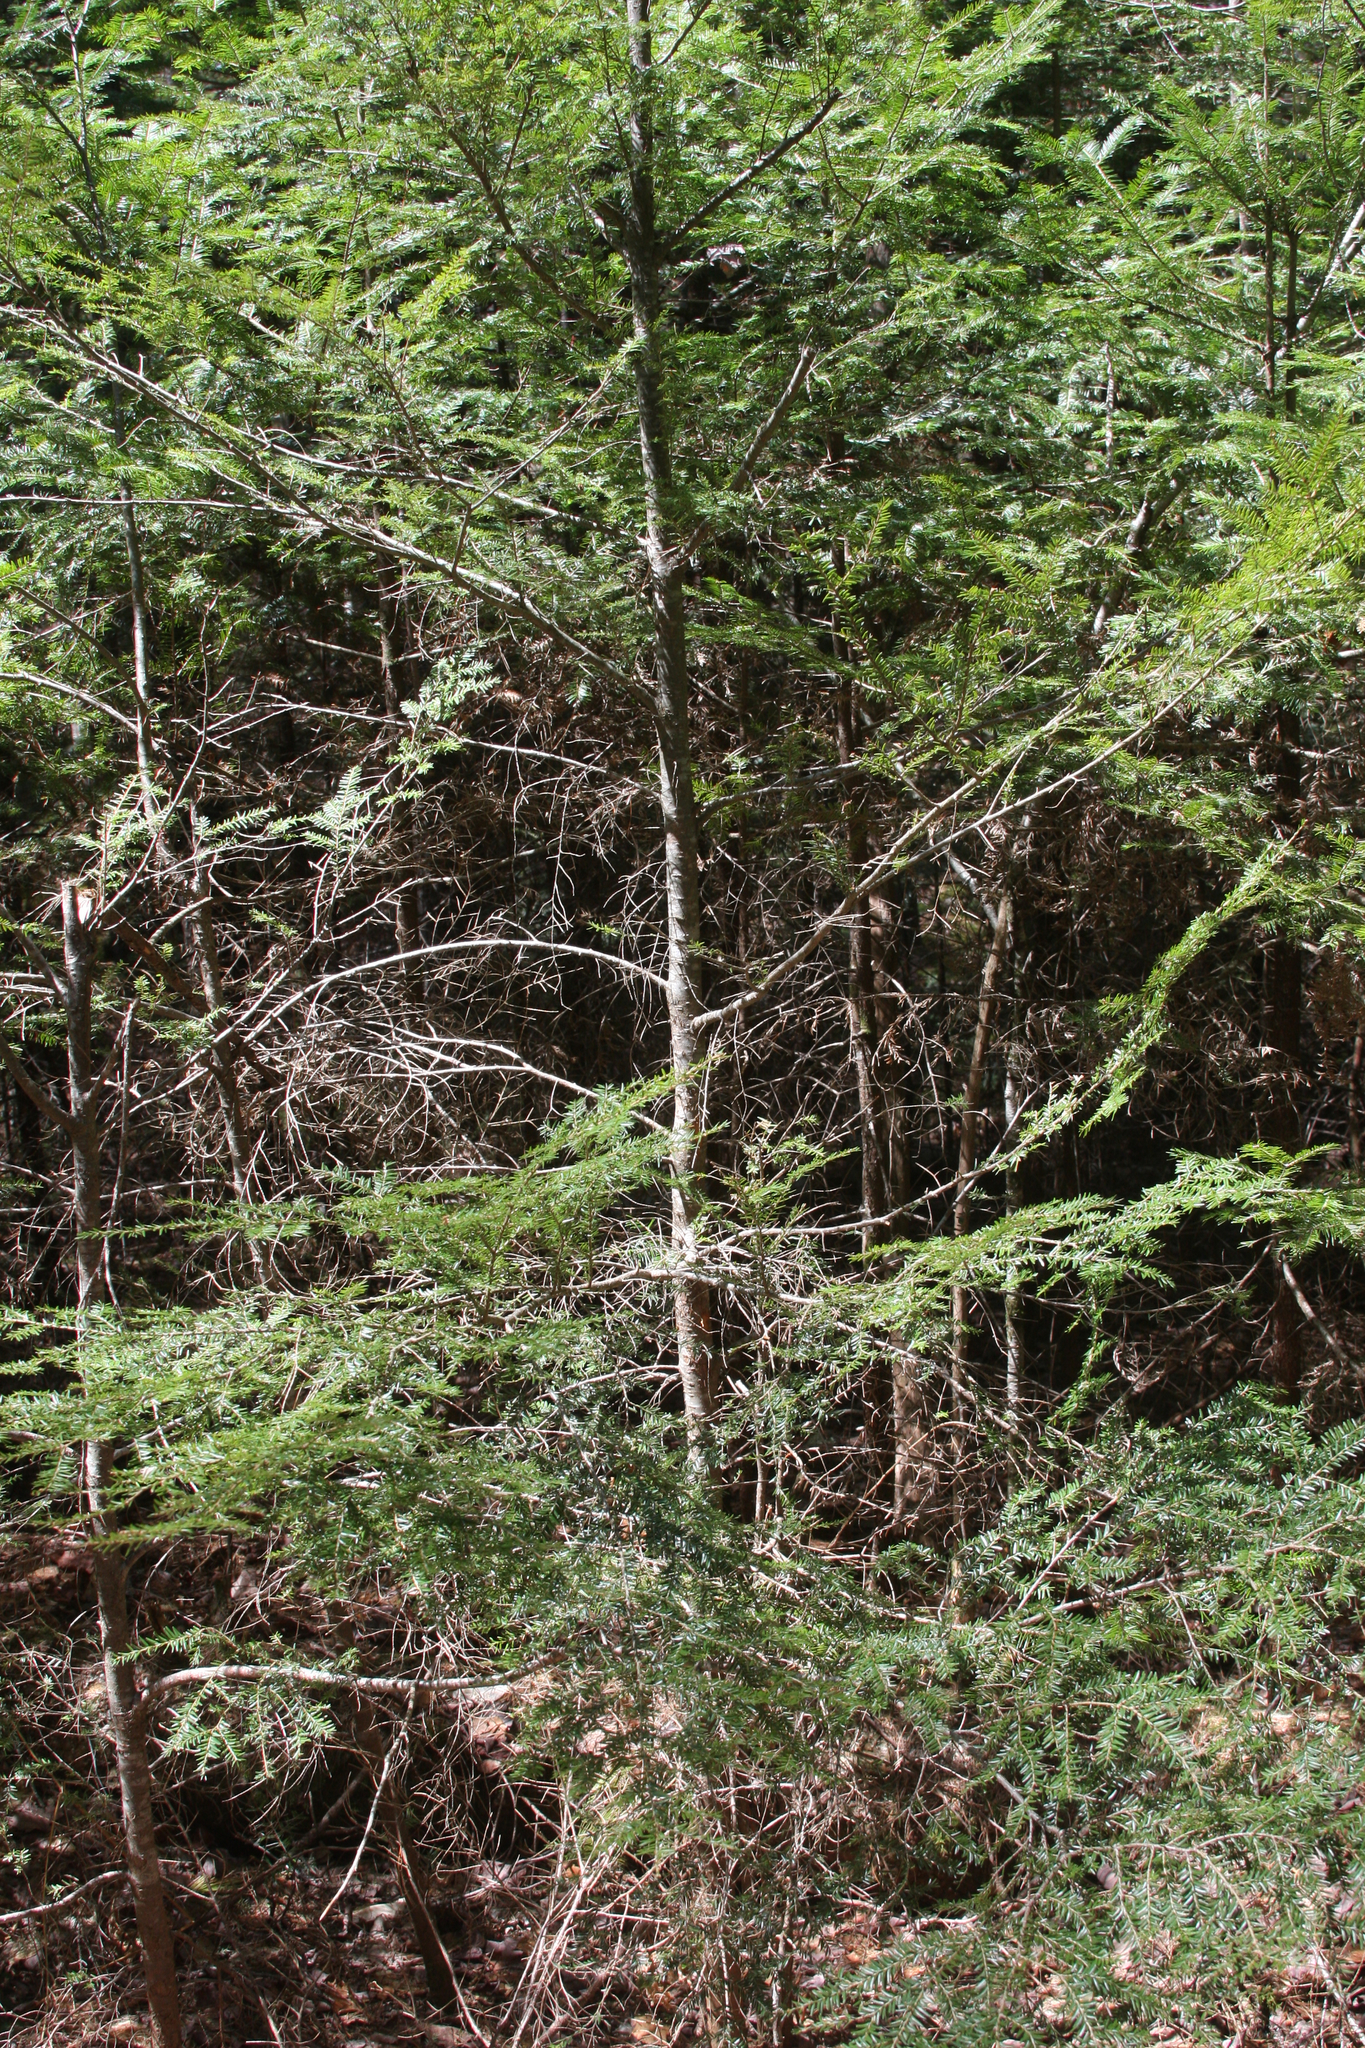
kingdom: Plantae
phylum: Tracheophyta
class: Pinopsida
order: Pinales
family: Pinaceae
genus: Tsuga
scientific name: Tsuga canadensis
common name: Eastern hemlock
